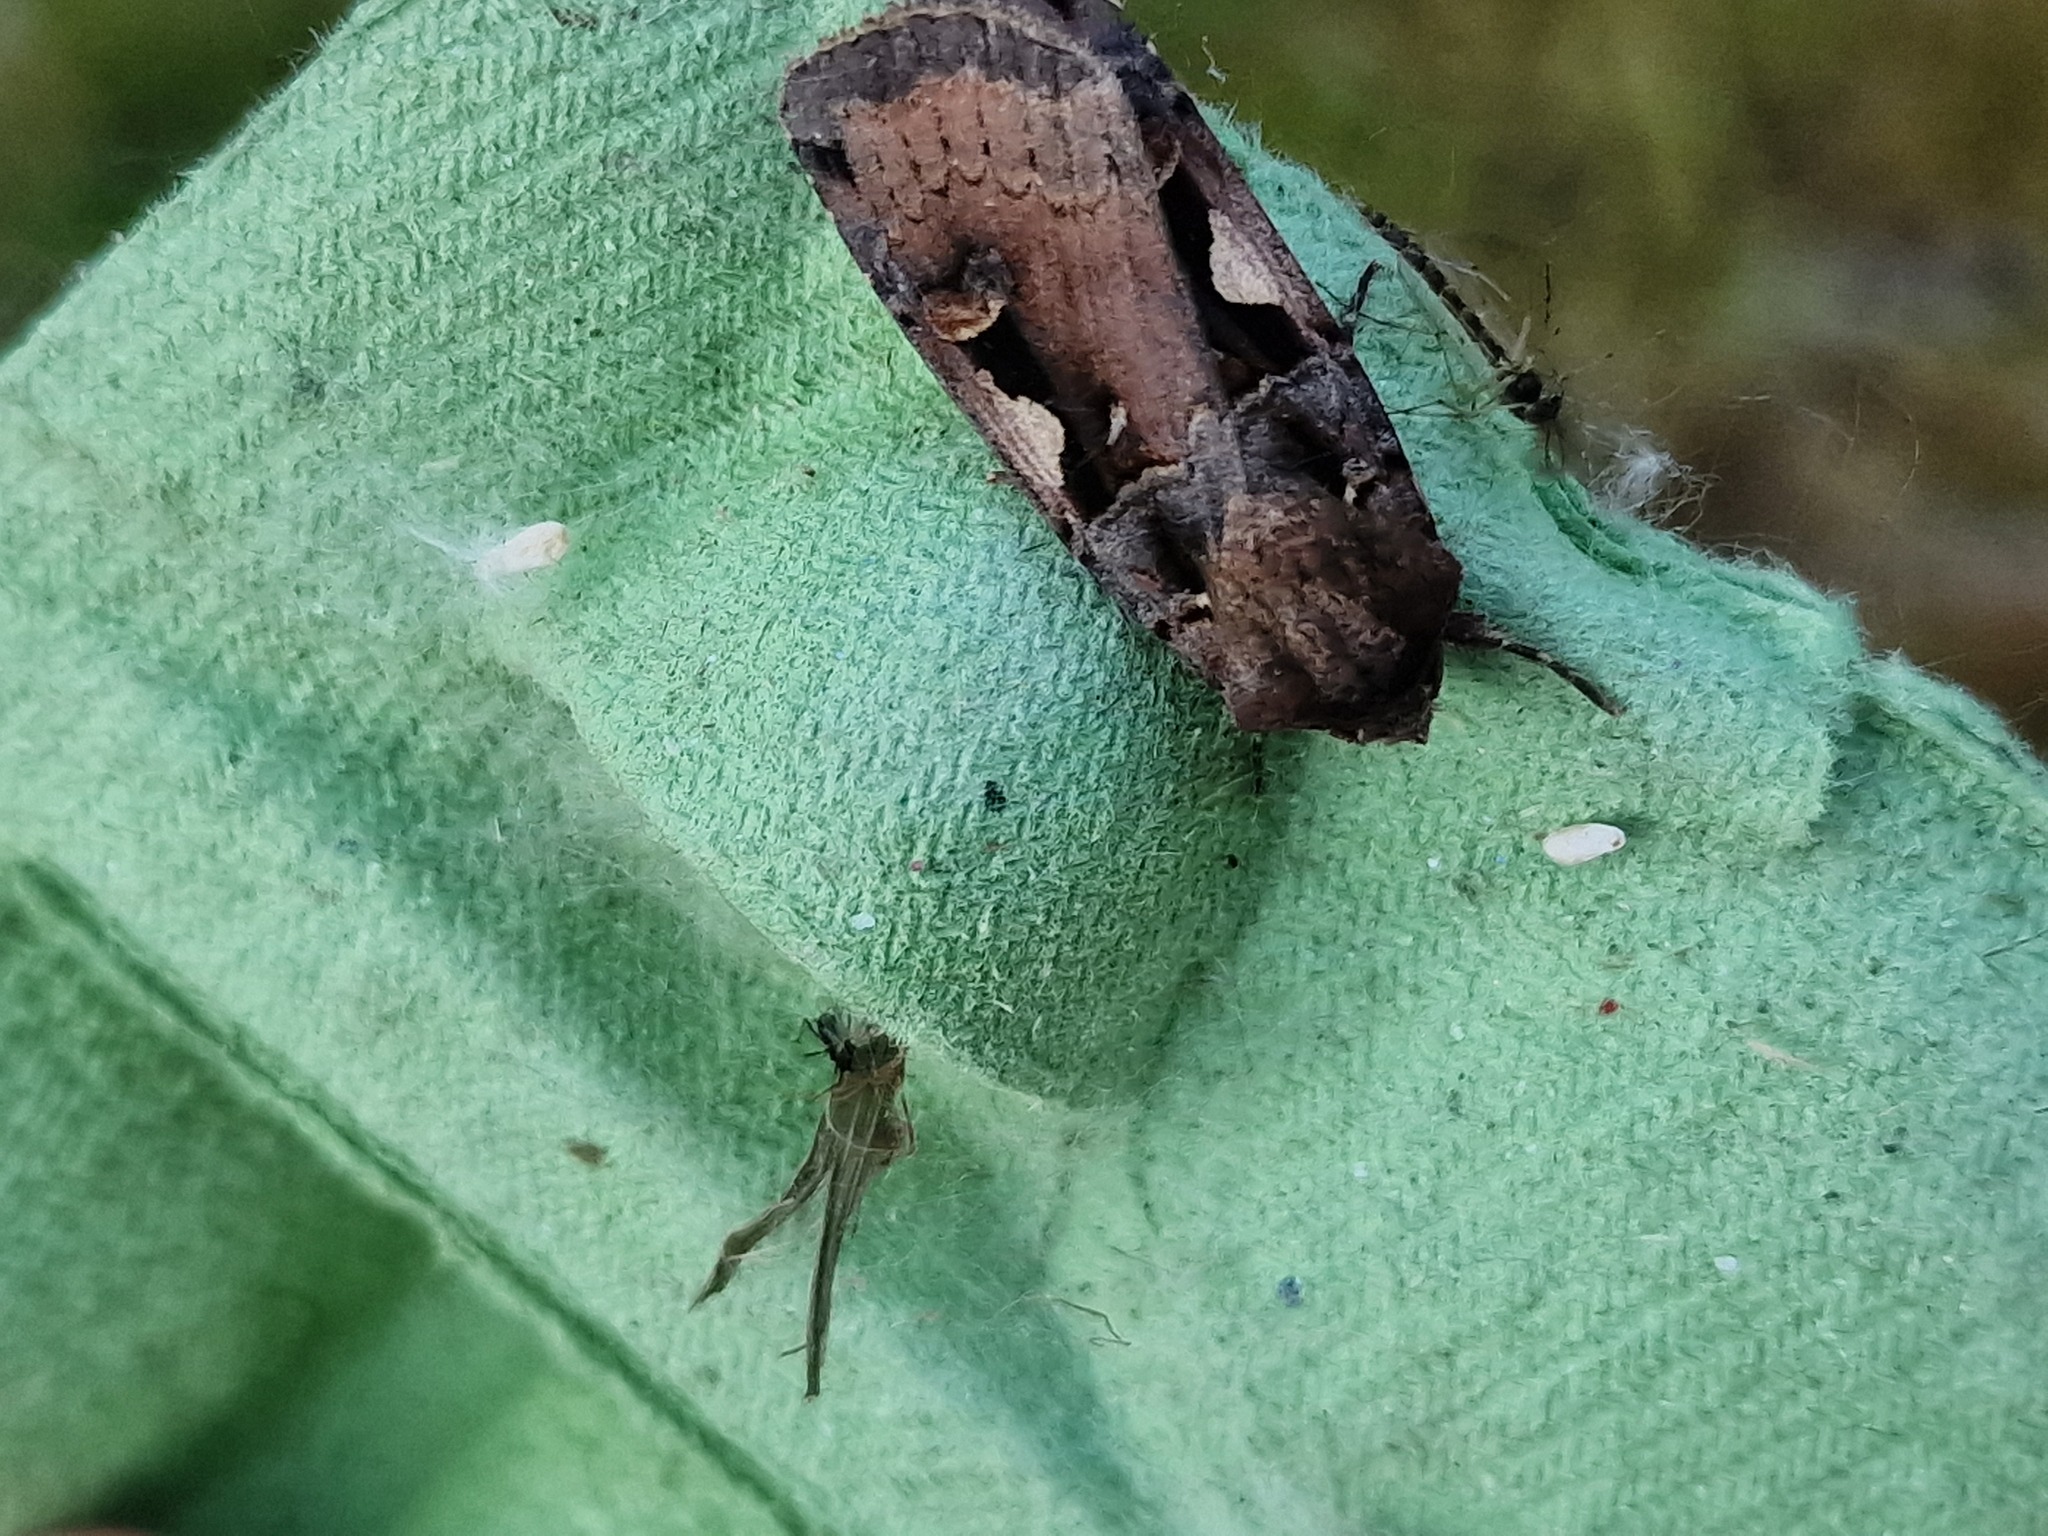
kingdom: Animalia
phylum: Arthropoda
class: Insecta
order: Lepidoptera
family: Noctuidae
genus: Xestia
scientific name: Xestia c-nigrum
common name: Setaceous hebrew character
